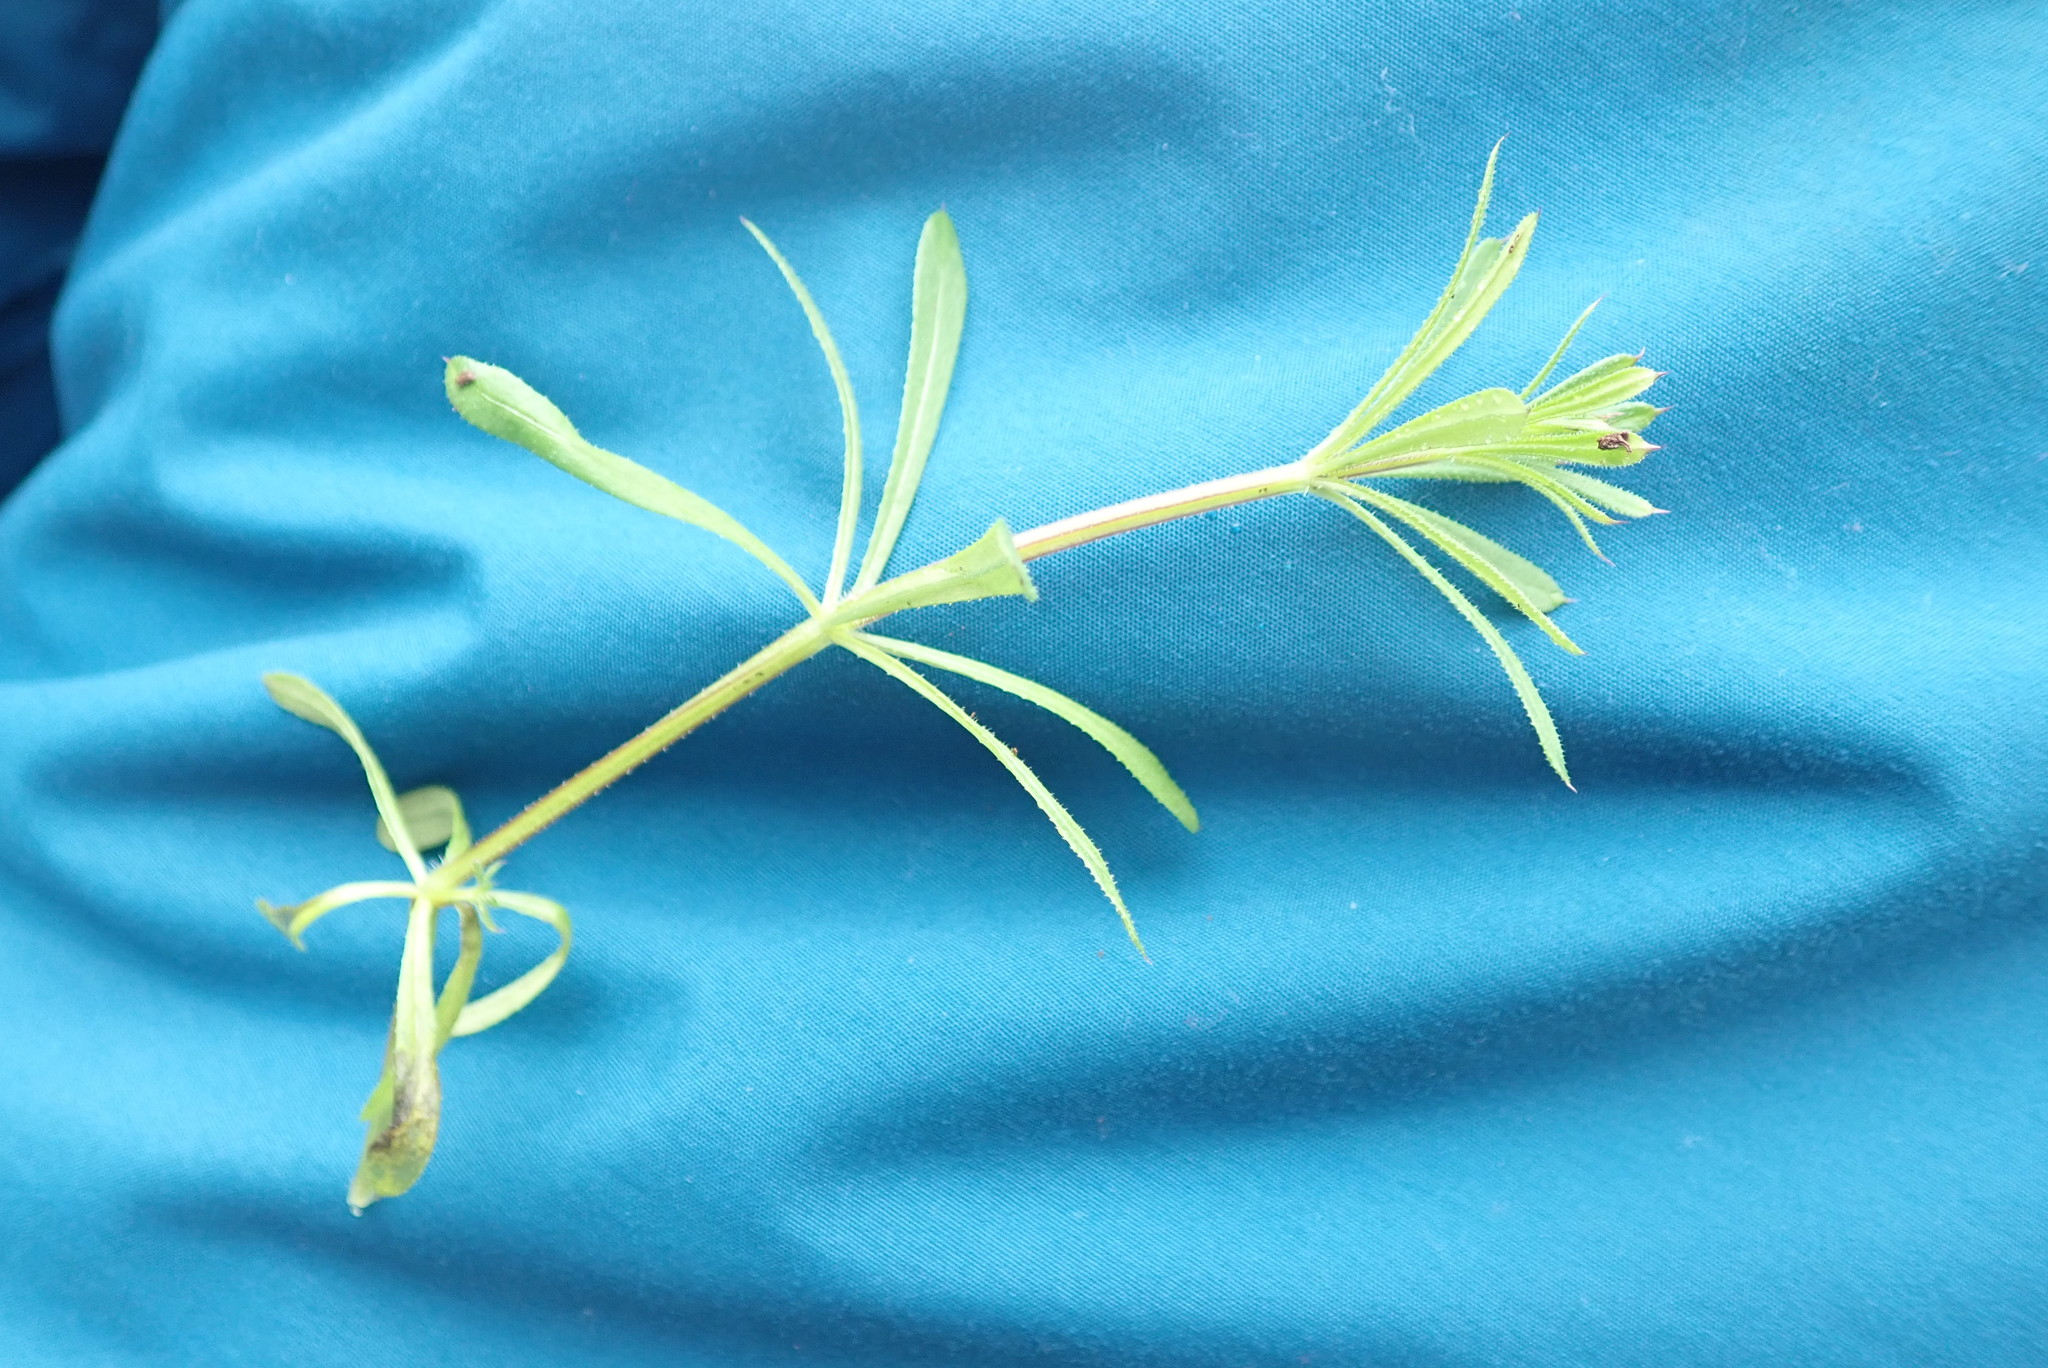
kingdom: Plantae
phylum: Tracheophyta
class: Magnoliopsida
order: Gentianales
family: Rubiaceae
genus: Galium
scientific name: Galium aparine
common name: Cleavers
